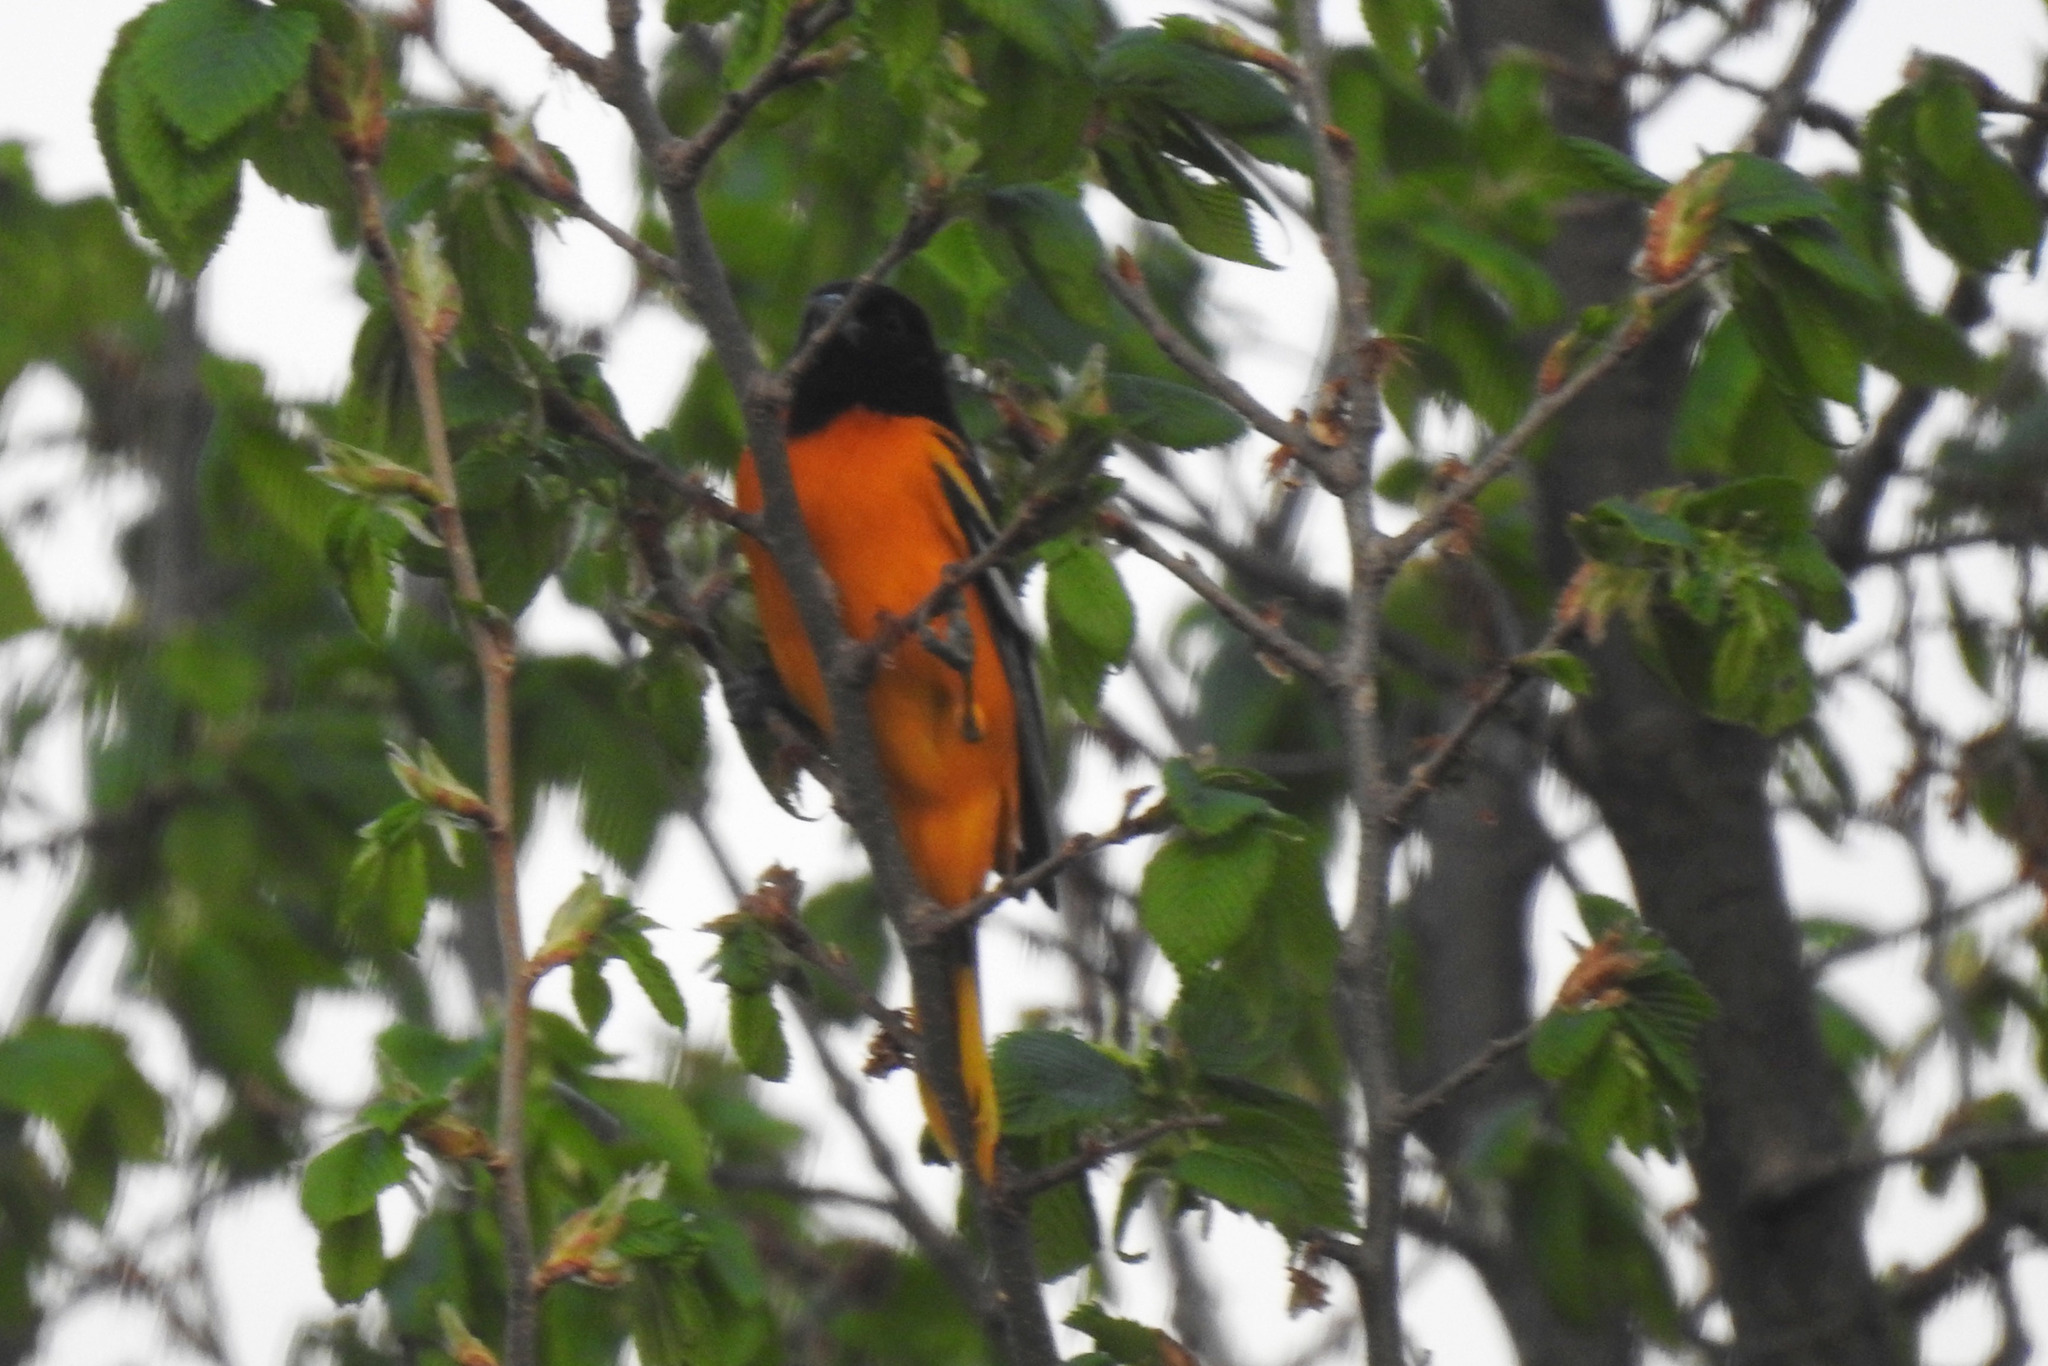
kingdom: Animalia
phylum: Chordata
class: Aves
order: Passeriformes
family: Icteridae
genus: Icterus
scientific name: Icterus galbula
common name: Baltimore oriole
